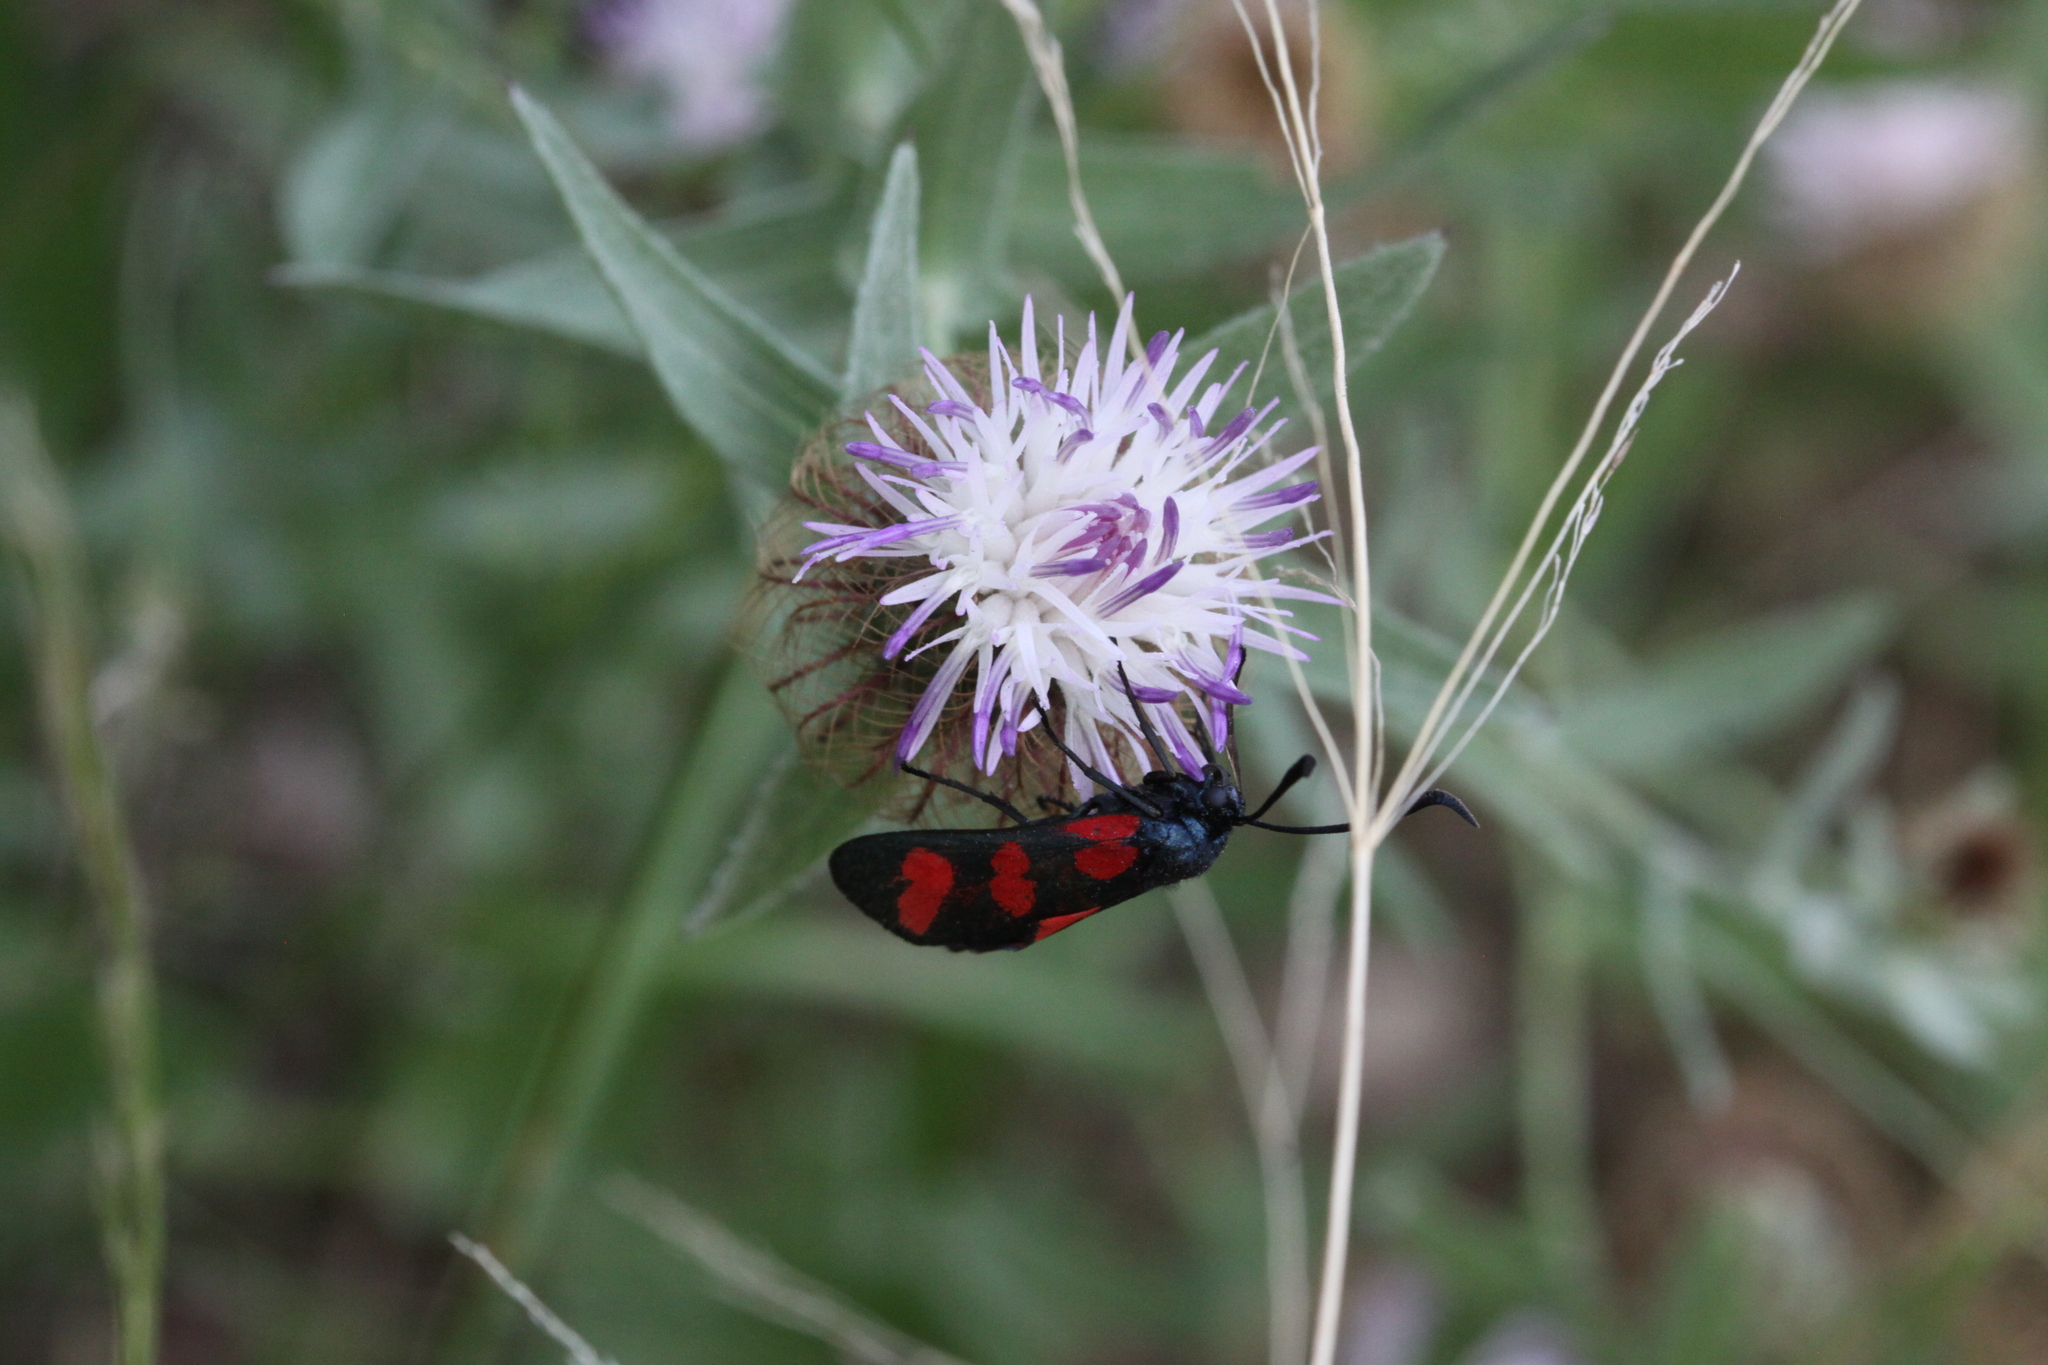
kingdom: Animalia
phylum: Arthropoda
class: Insecta
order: Lepidoptera
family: Zygaenidae
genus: Zygaena
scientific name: Zygaena filipendulae
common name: Six-spot burnet
